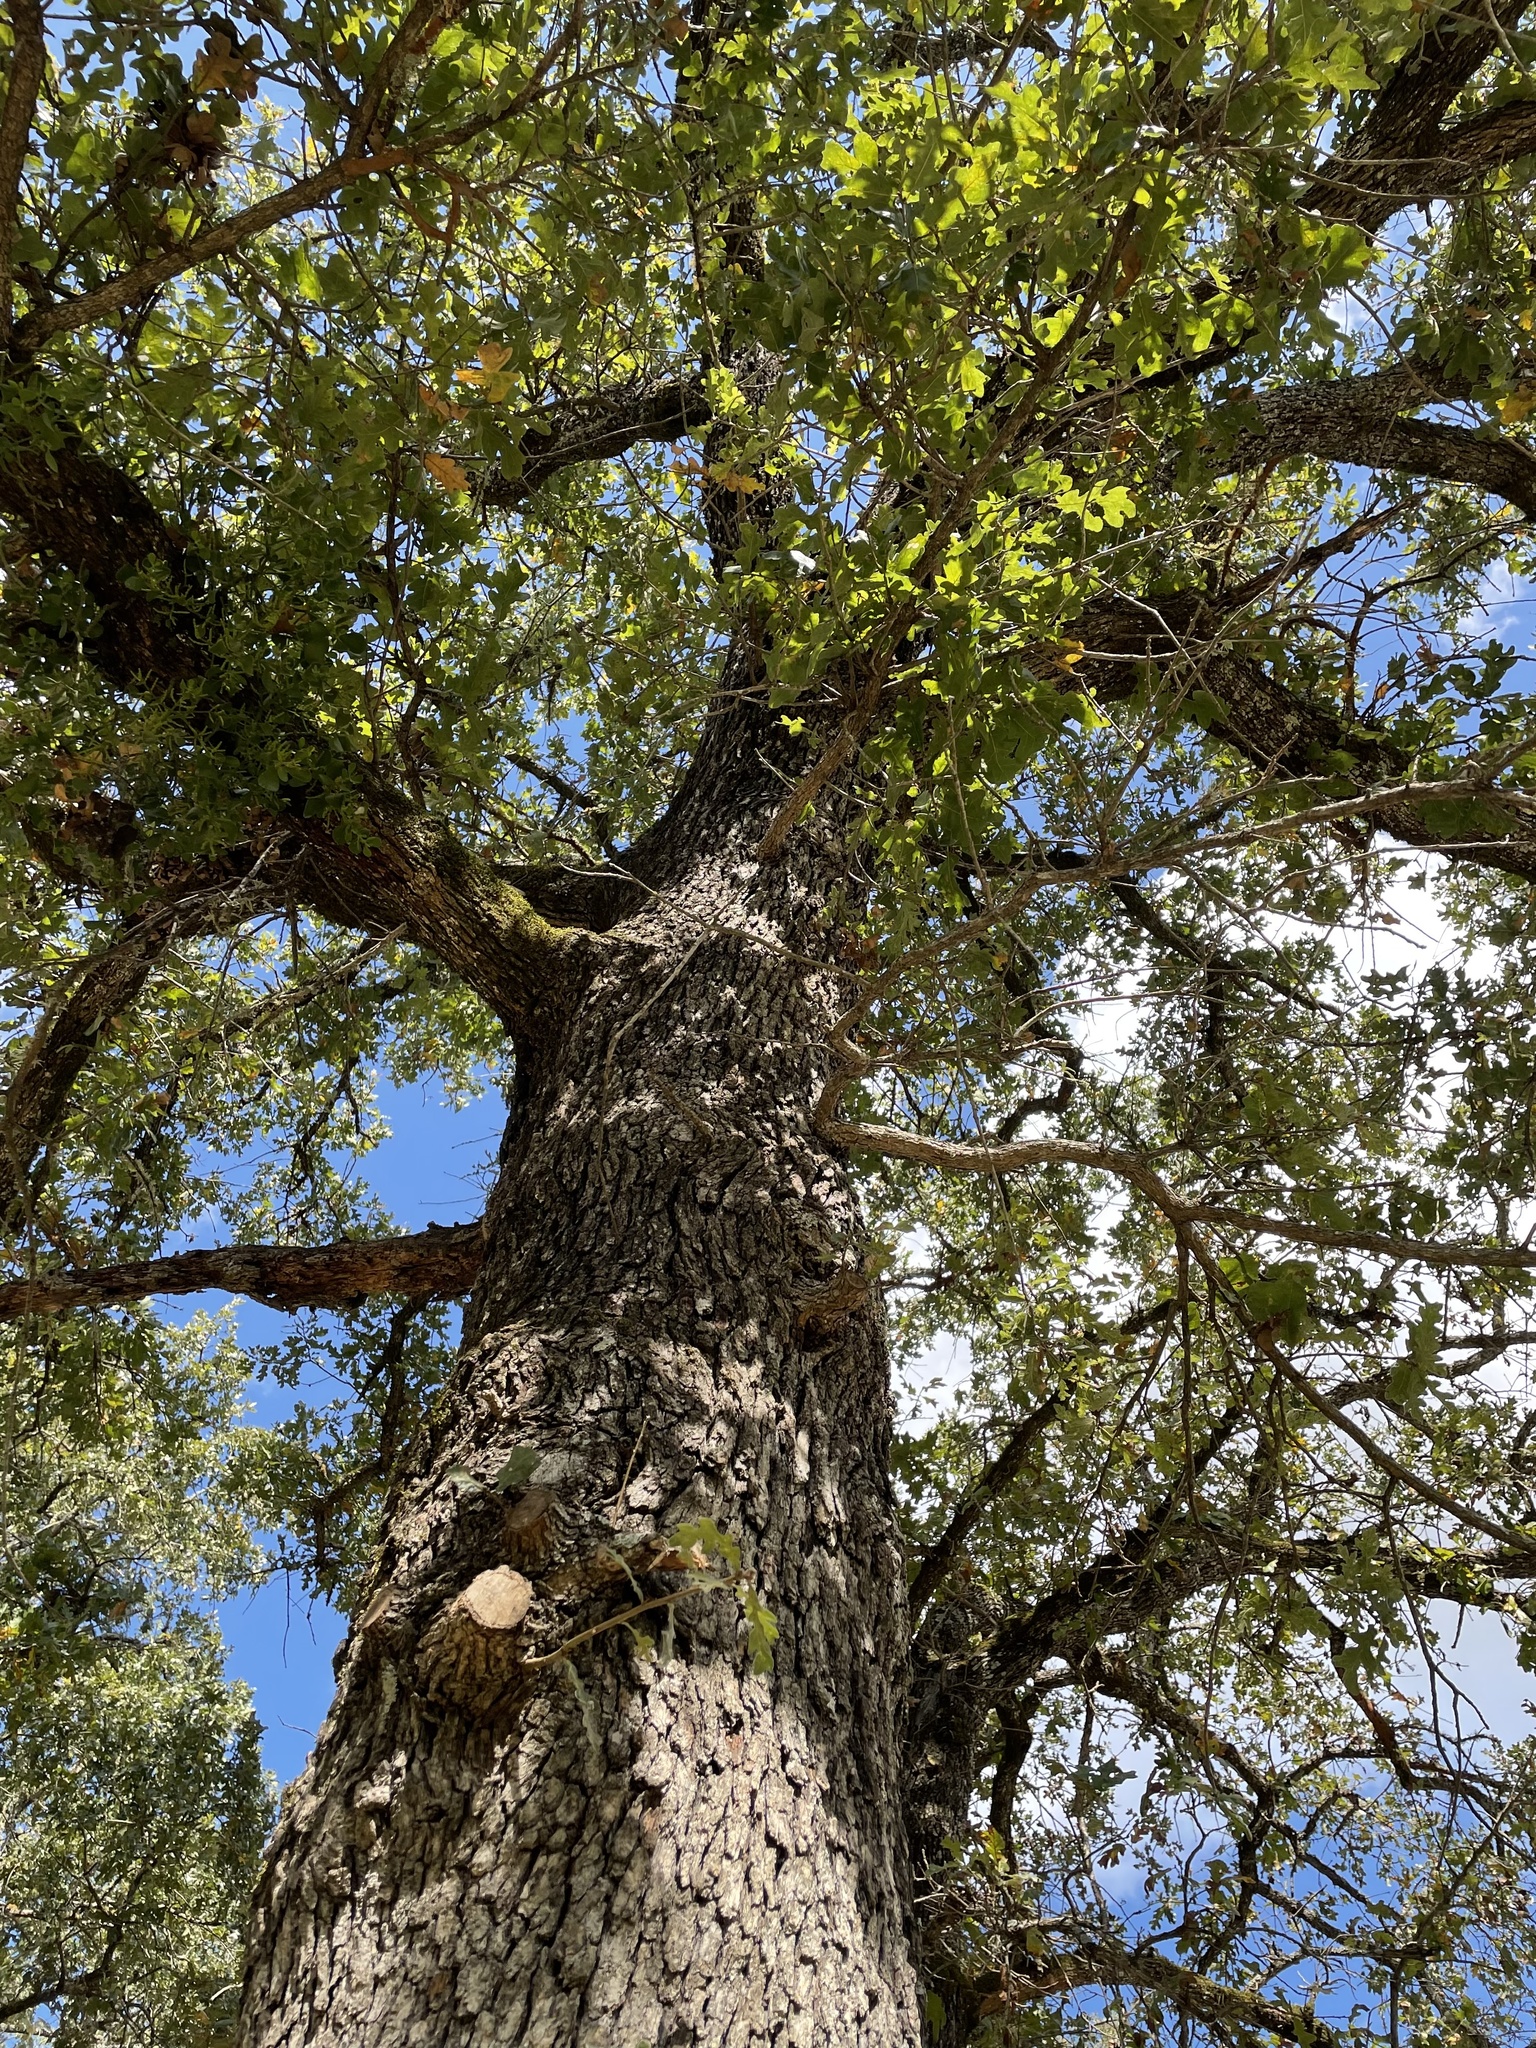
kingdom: Plantae
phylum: Tracheophyta
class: Magnoliopsida
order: Fagales
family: Fagaceae
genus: Quercus
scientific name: Quercus stellata
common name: Post oak
